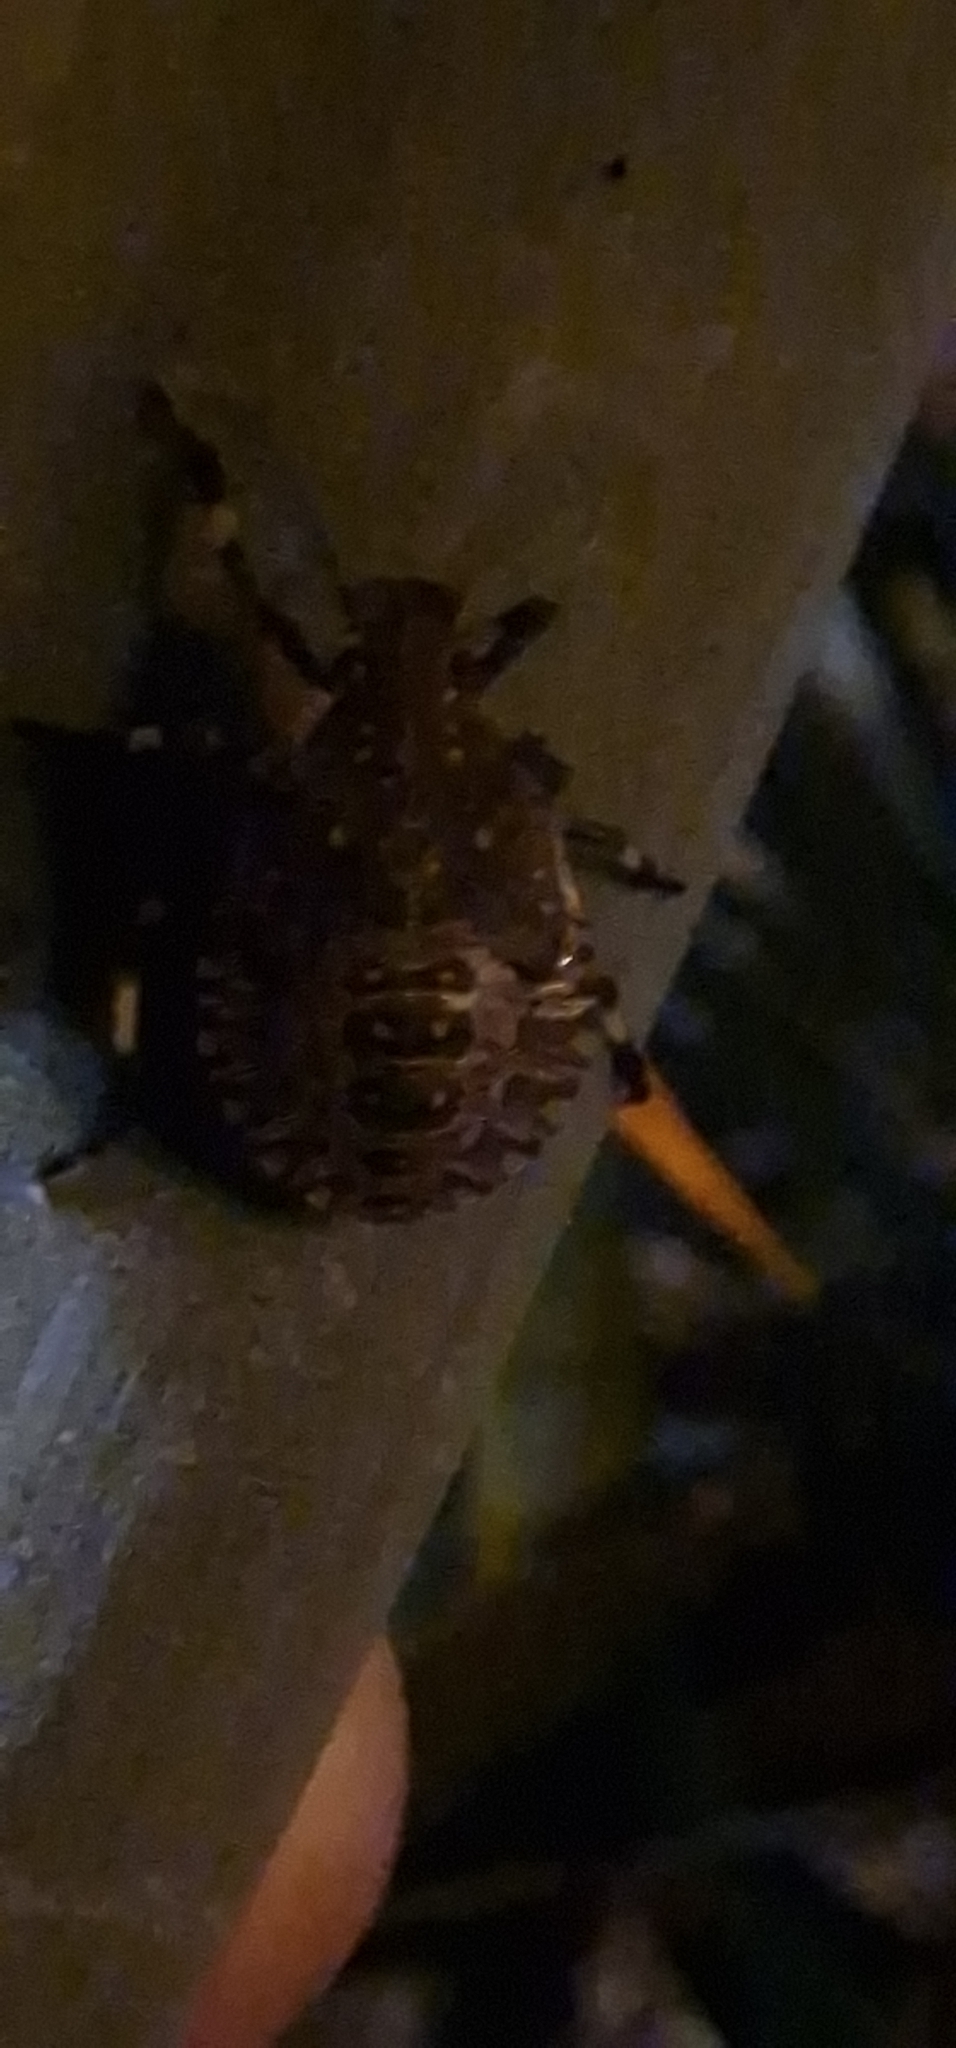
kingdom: Animalia
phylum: Arthropoda
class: Insecta
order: Hemiptera
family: Pentatomidae
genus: Halyomorpha
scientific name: Halyomorpha halys
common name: Brown marmorated stink bug
